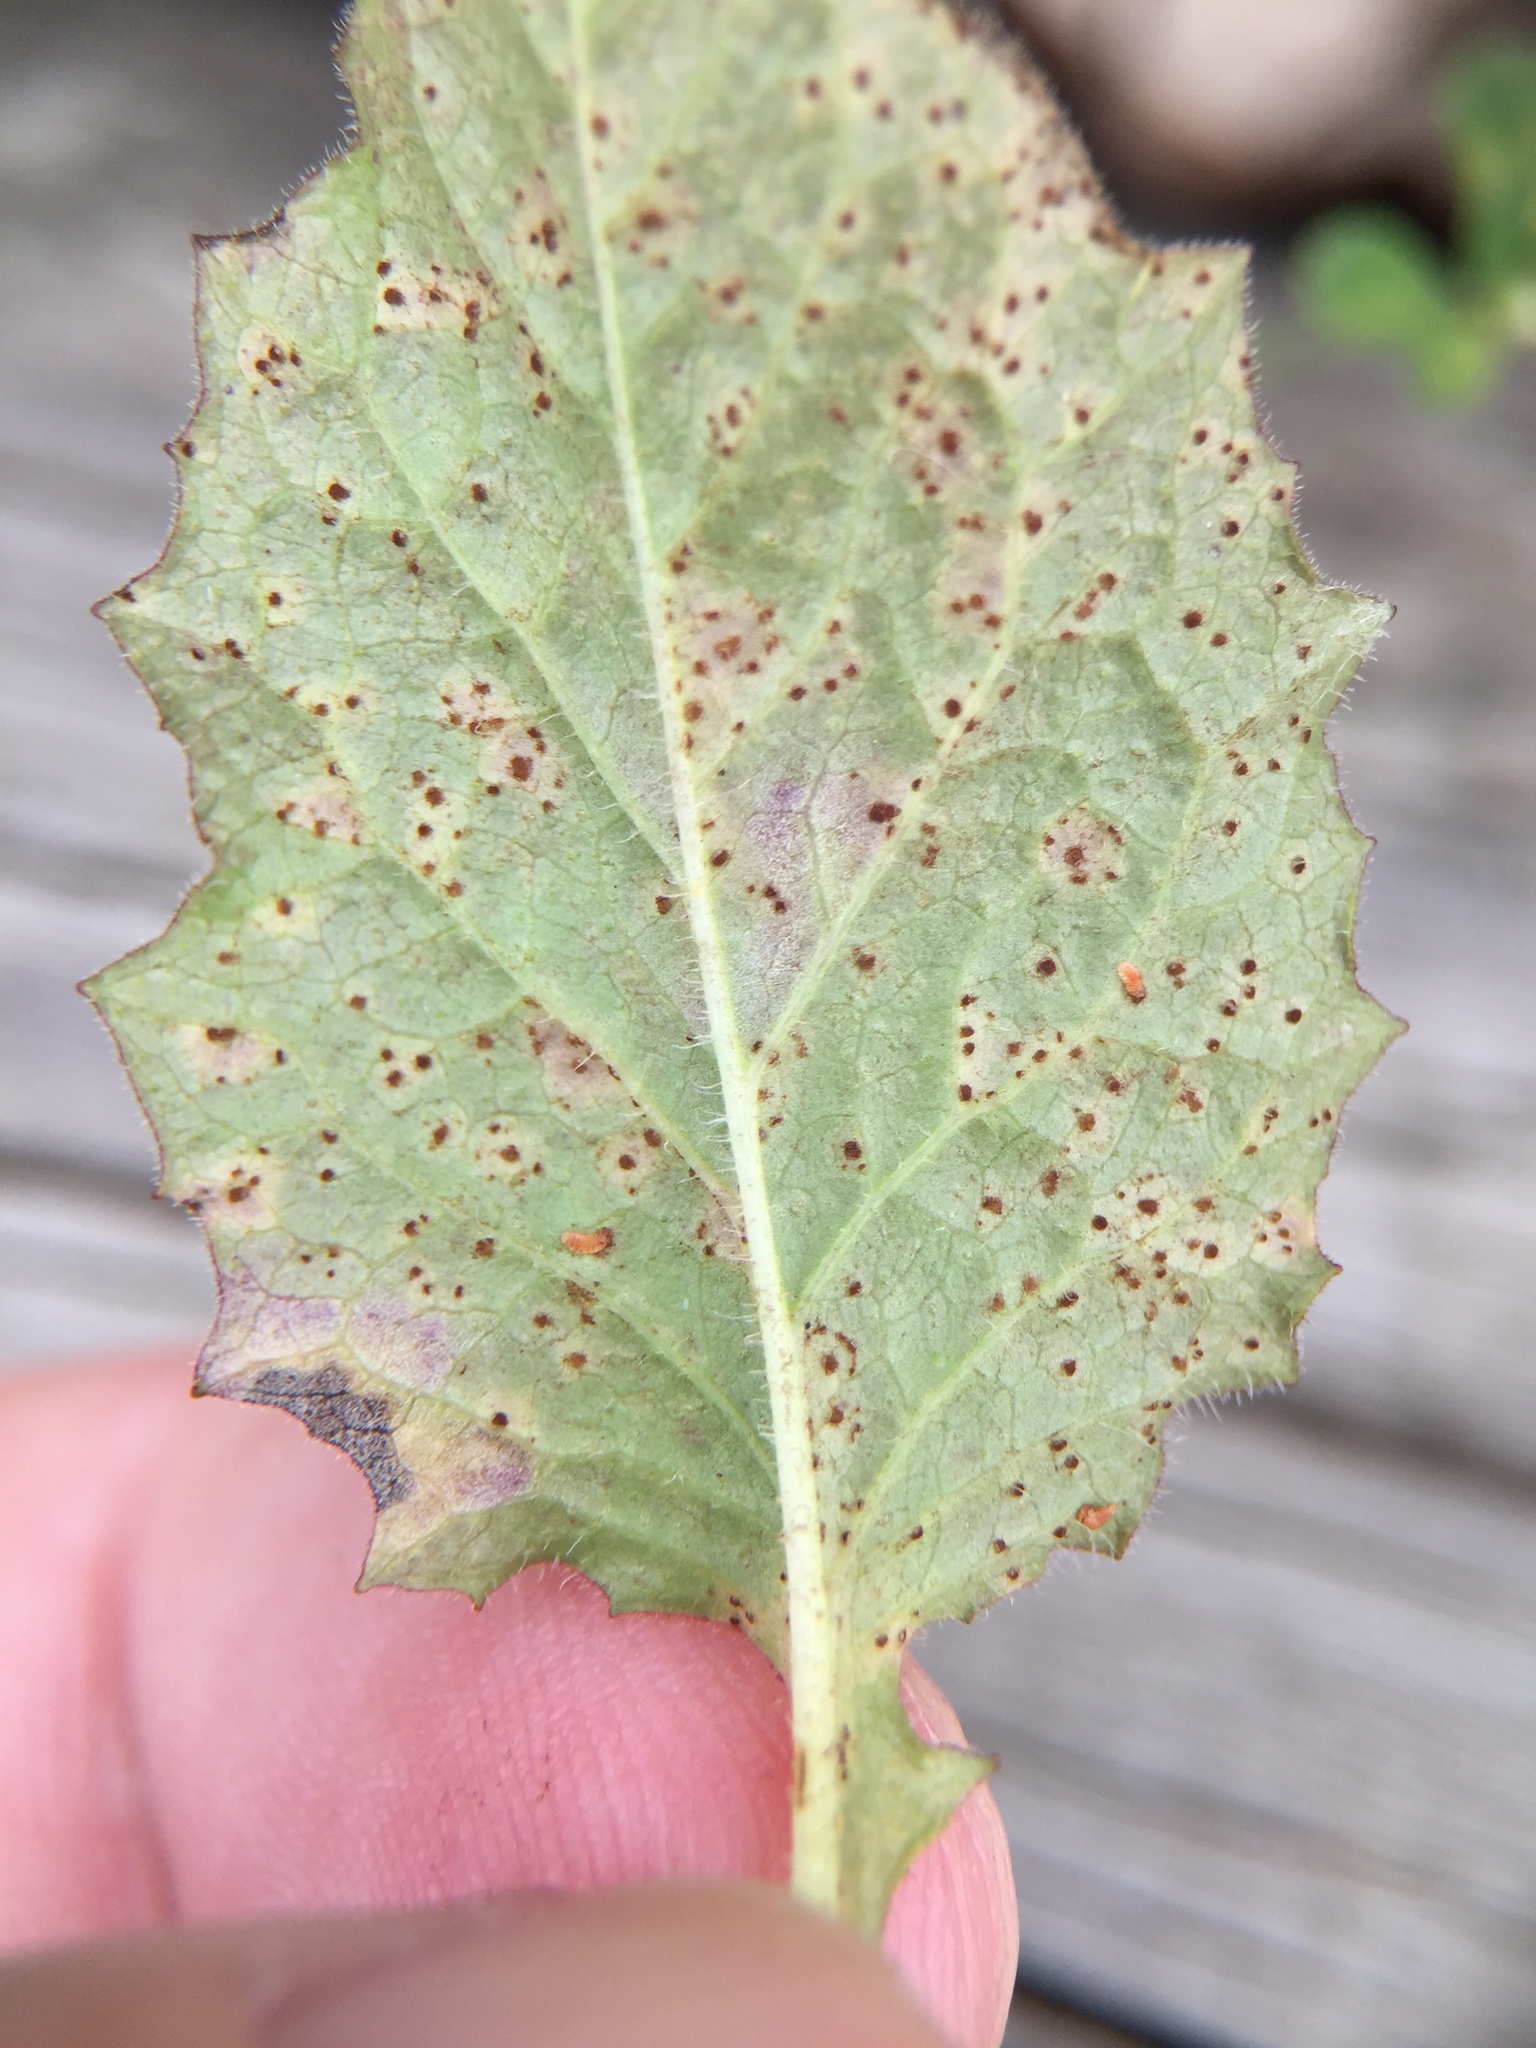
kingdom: Fungi
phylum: Basidiomycota
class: Pucciniomycetes
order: Pucciniales
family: Pucciniaceae
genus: Puccinia
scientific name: Puccinia lapsanae
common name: Nipplewort rust
